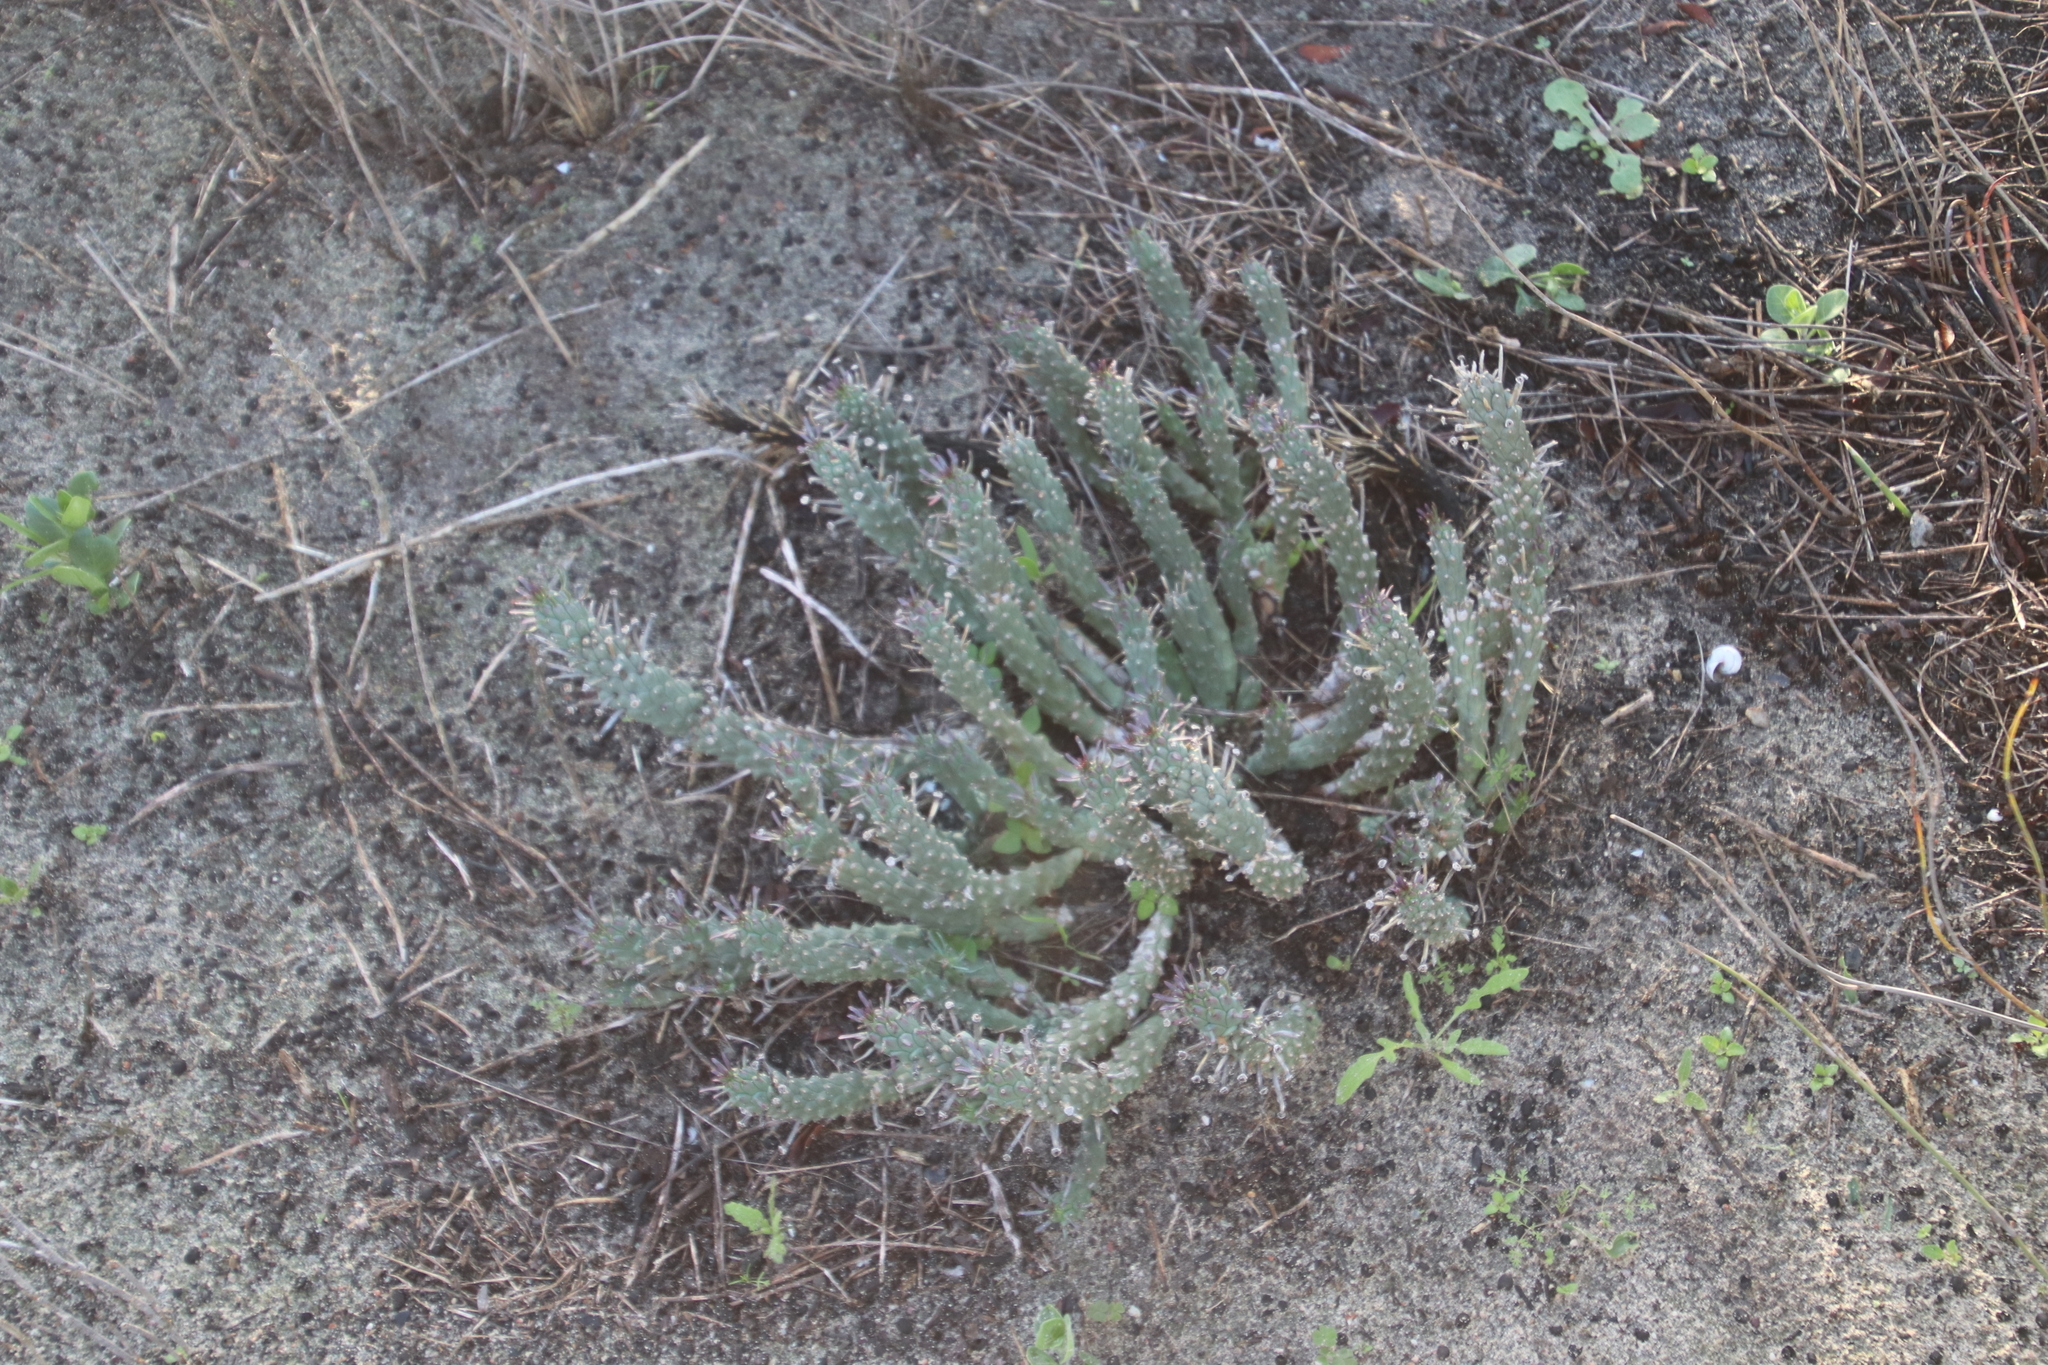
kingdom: Plantae
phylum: Tracheophyta
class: Magnoliopsida
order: Malpighiales
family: Euphorbiaceae
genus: Euphorbia
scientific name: Euphorbia caput-medusae
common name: Medusa's-head
